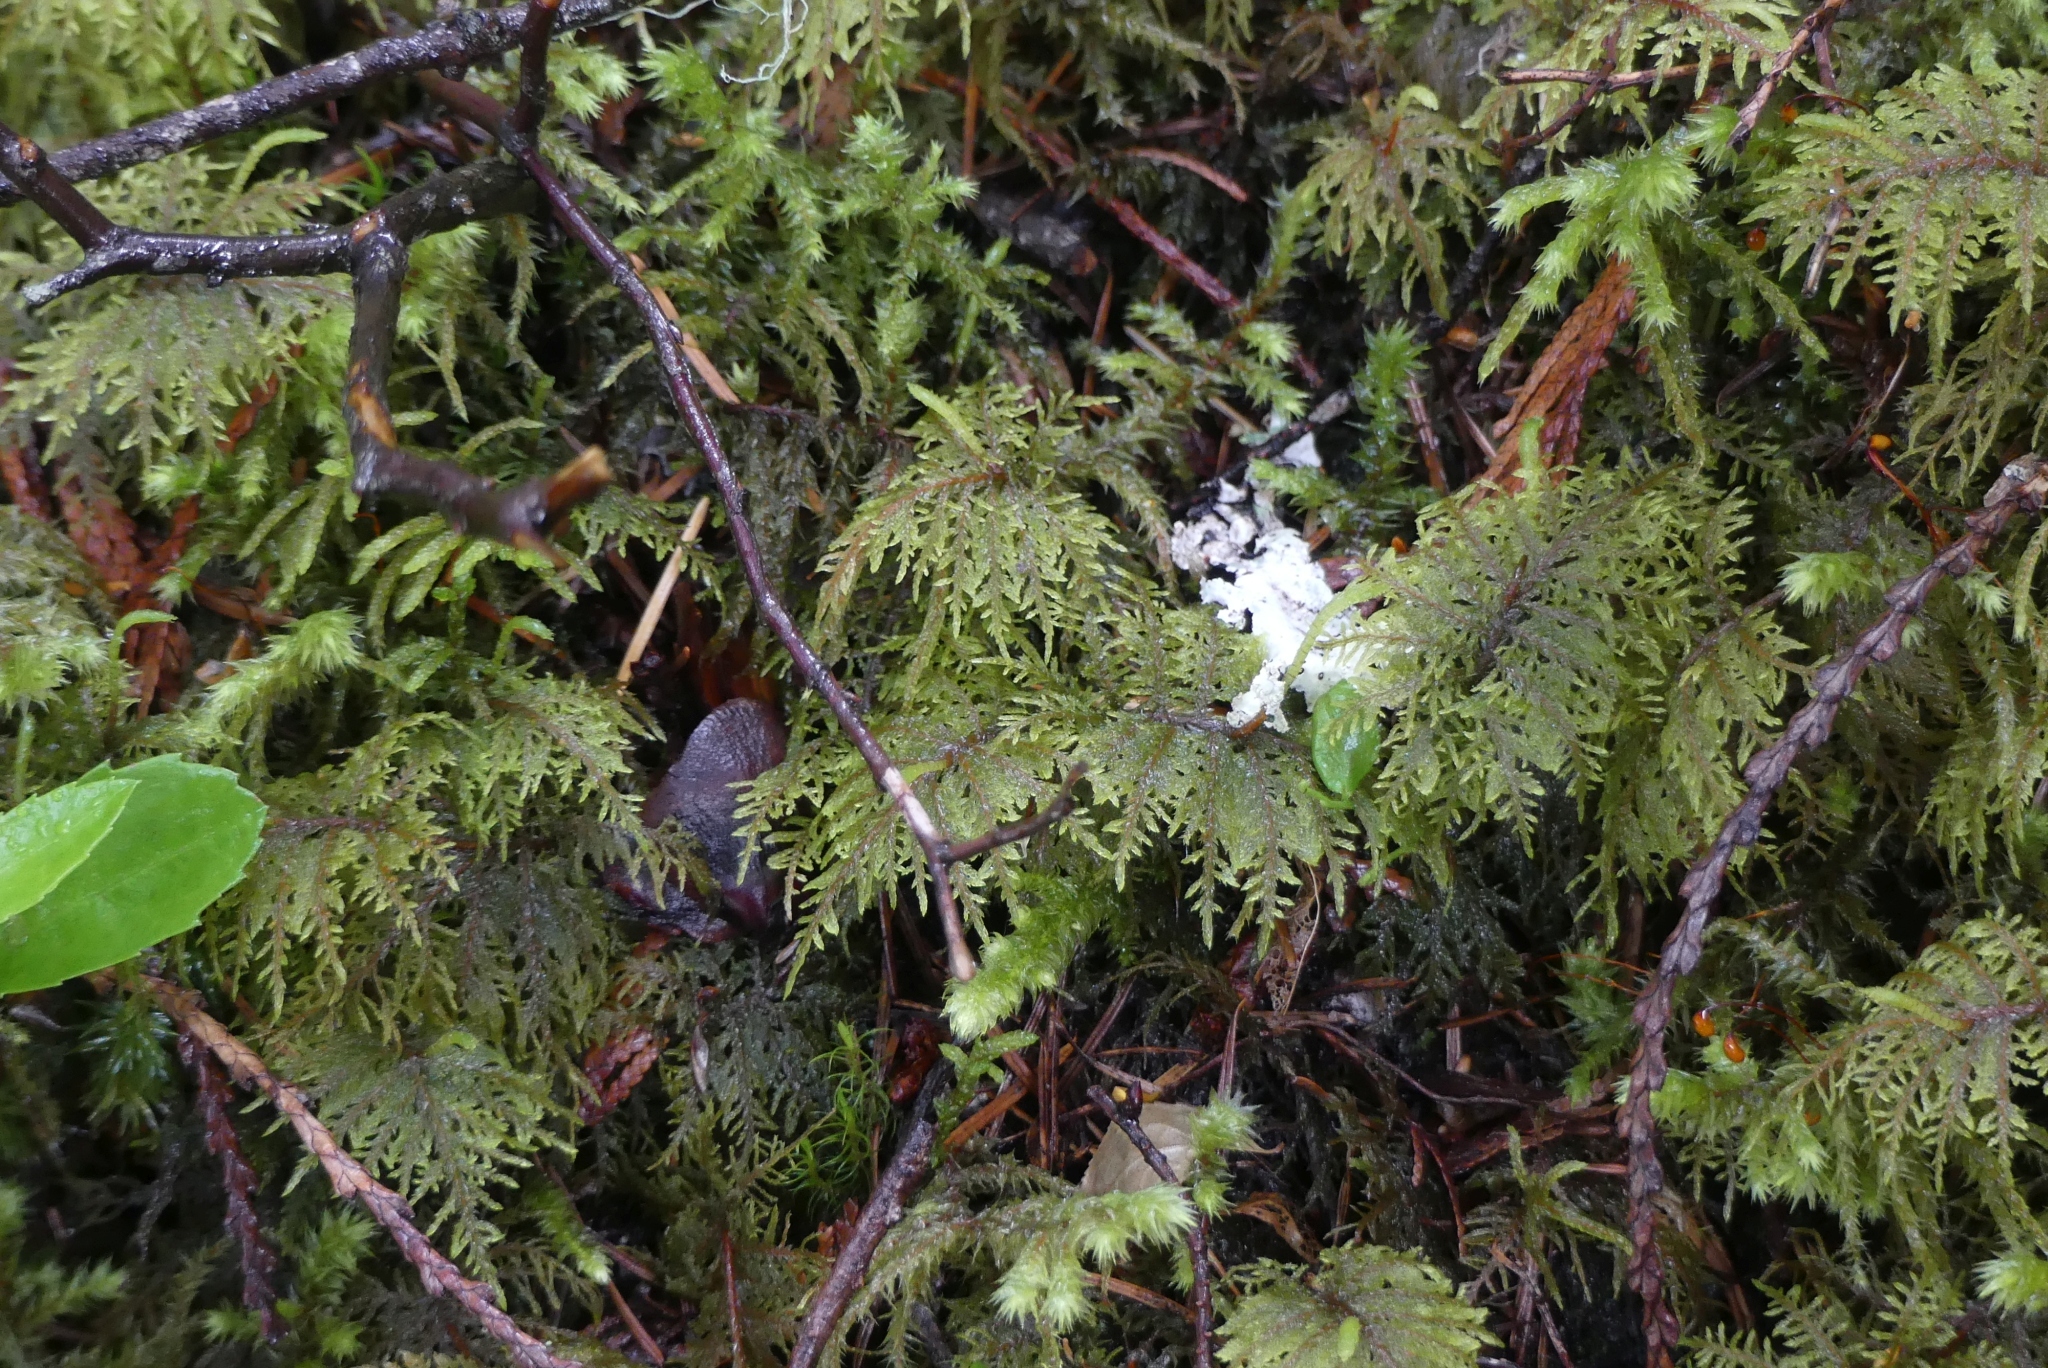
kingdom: Plantae
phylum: Bryophyta
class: Bryopsida
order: Hypnales
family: Hylocomiaceae
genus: Hylocomium
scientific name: Hylocomium splendens
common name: Stairstep moss
